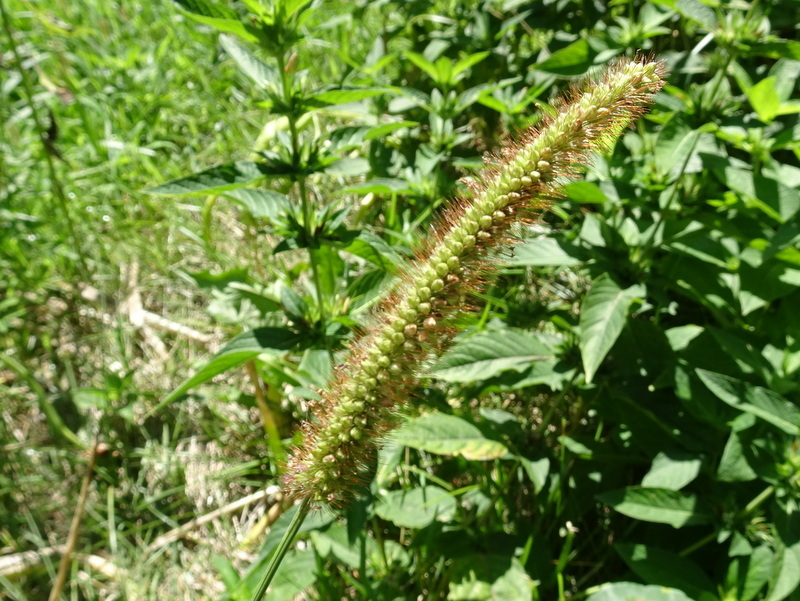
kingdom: Plantae
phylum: Tracheophyta
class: Liliopsida
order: Poales
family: Poaceae
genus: Setaria
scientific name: Setaria pumila
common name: Yellow bristle-grass
